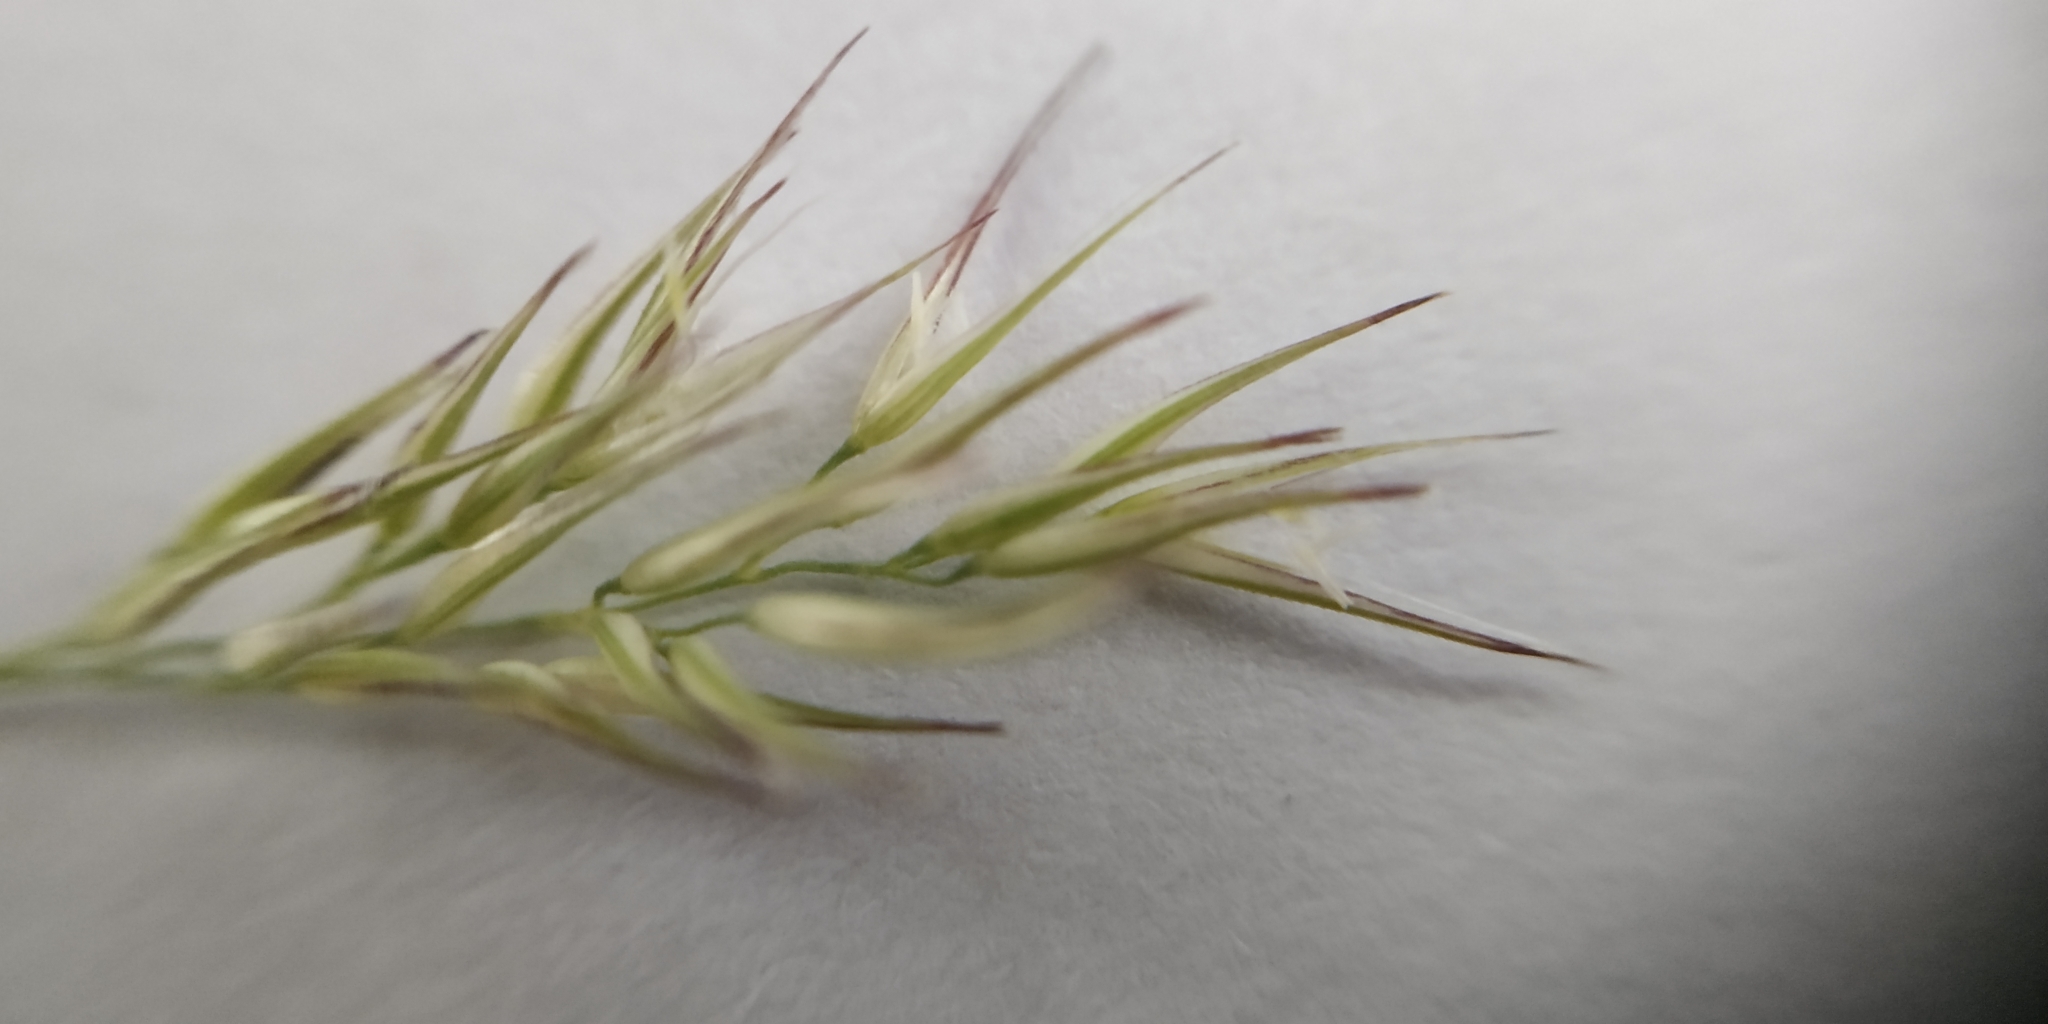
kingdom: Plantae
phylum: Tracheophyta
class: Liliopsida
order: Poales
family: Poaceae
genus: Calamagrostis
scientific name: Calamagrostis epigejos
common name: Wood small-reed
